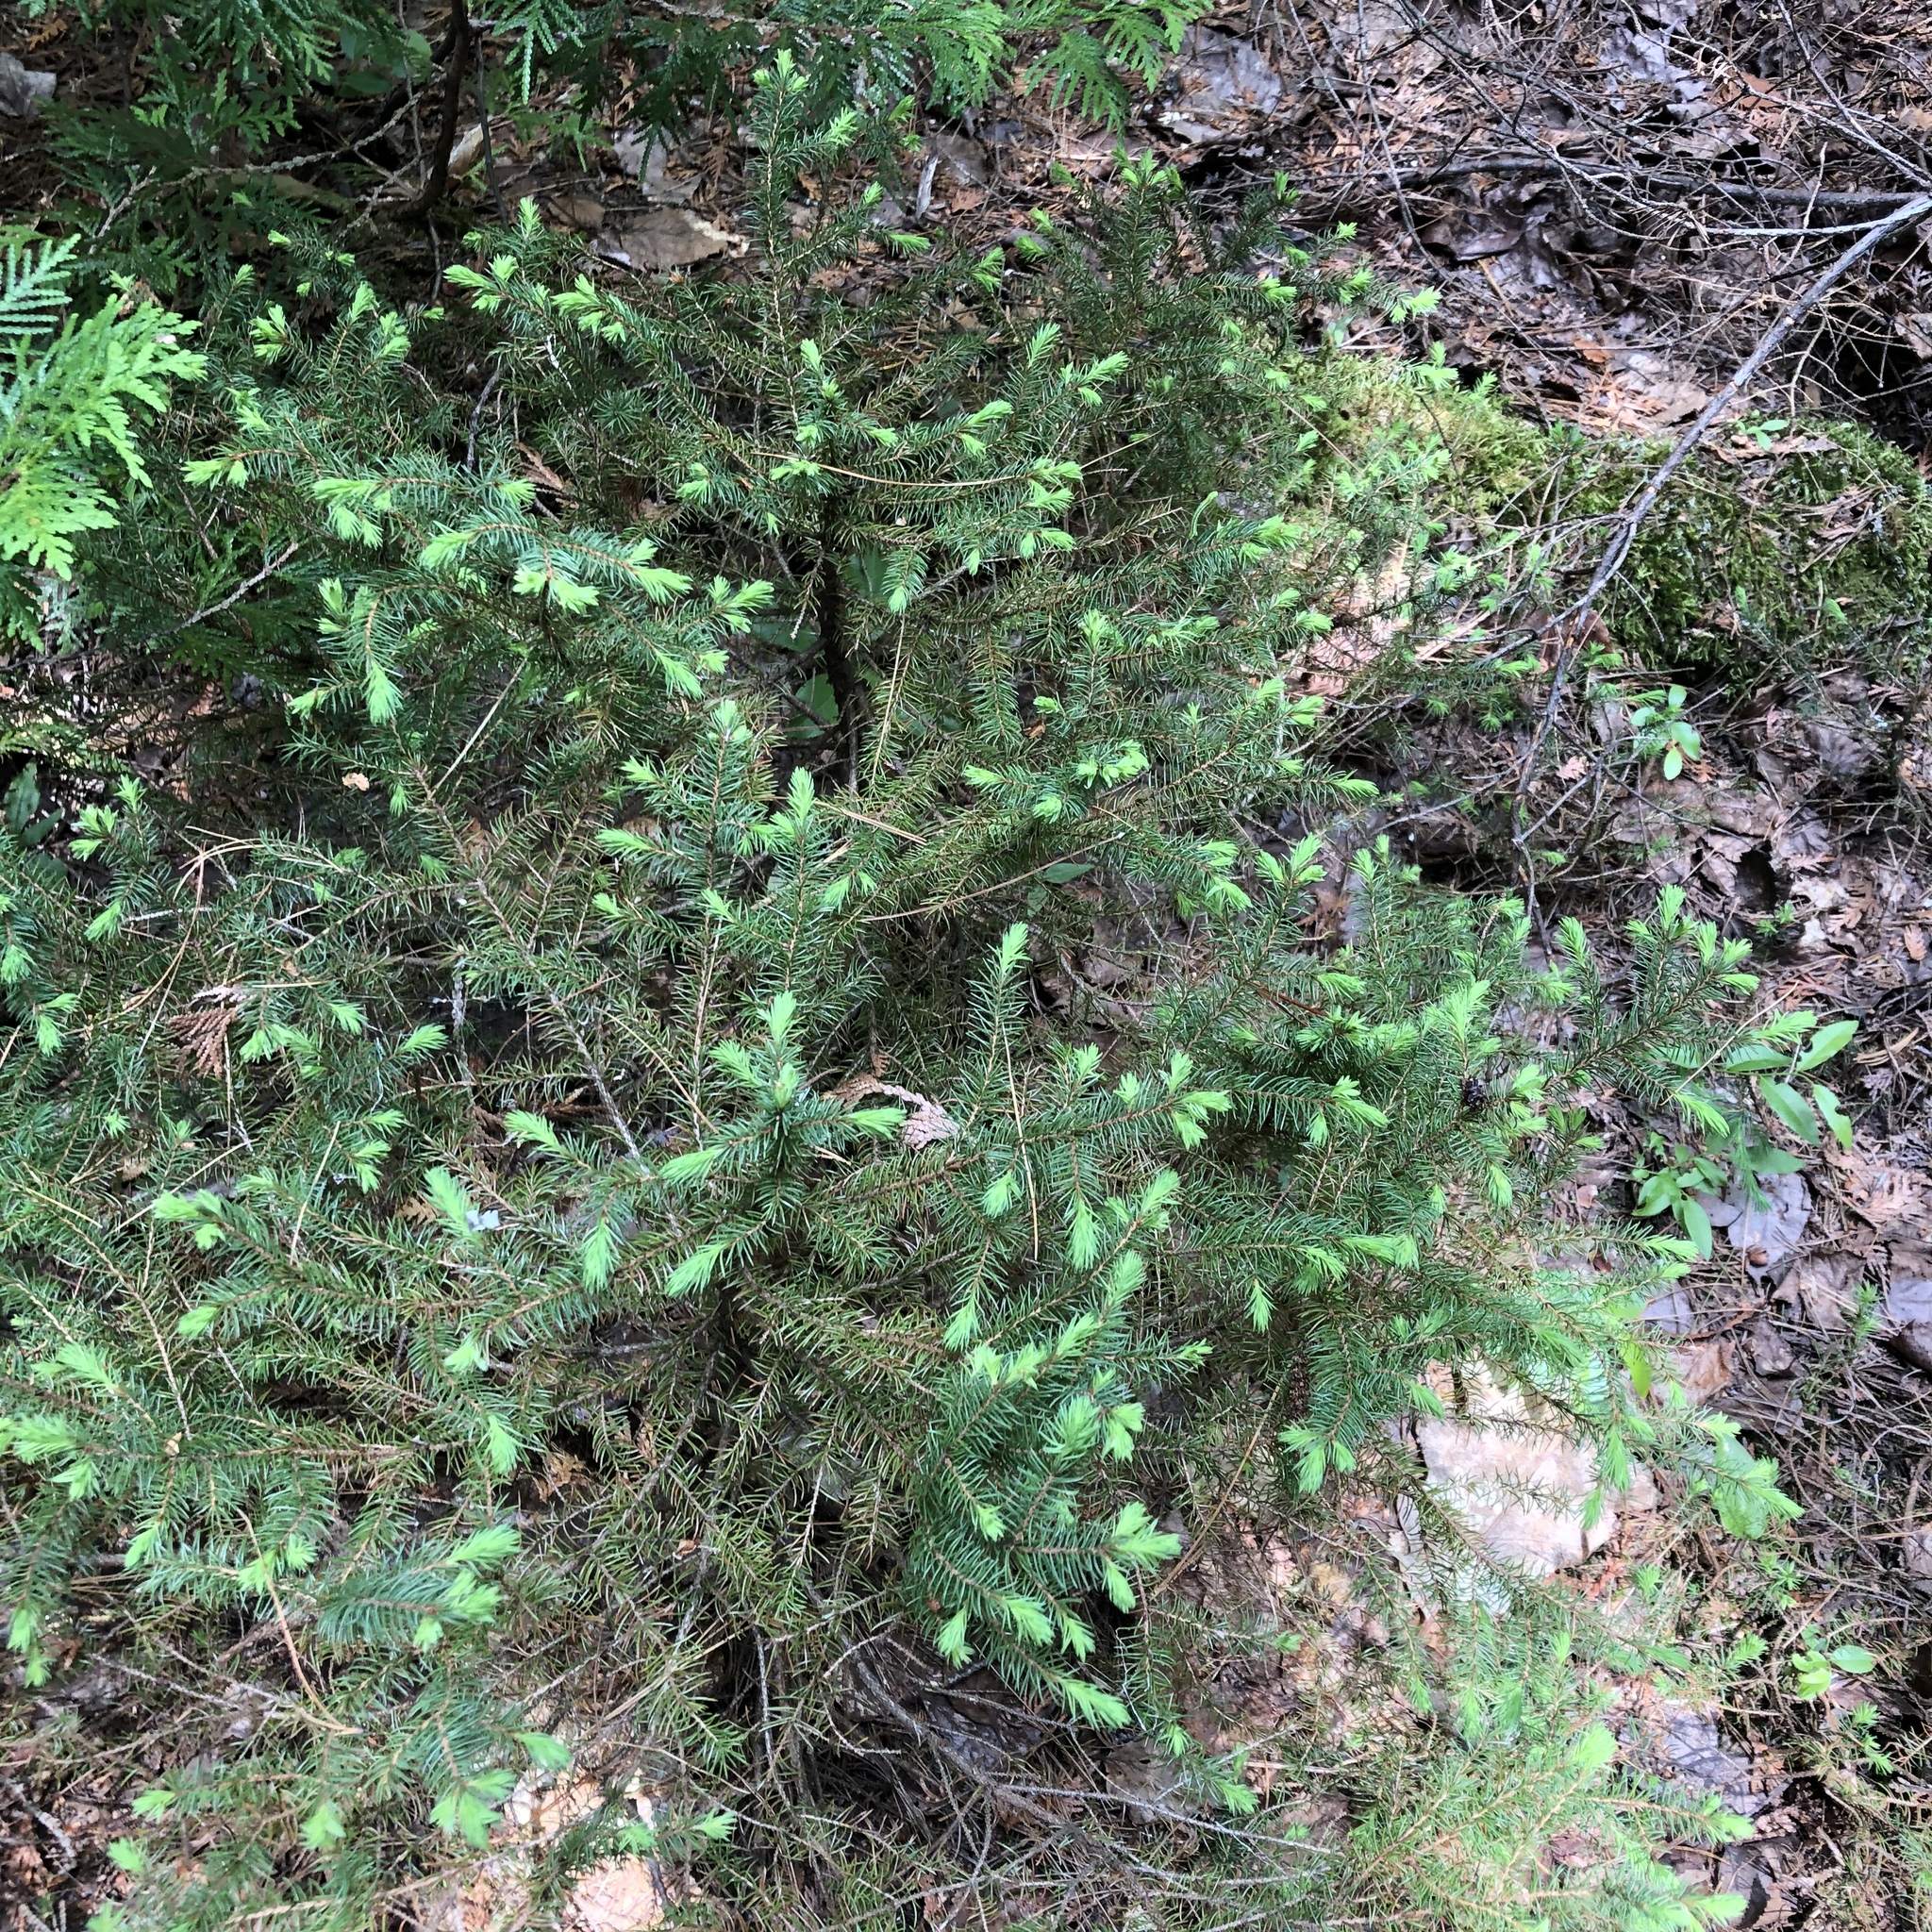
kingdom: Plantae
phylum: Tracheophyta
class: Pinopsida
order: Pinales
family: Pinaceae
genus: Picea
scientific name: Picea mariana
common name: Black spruce
